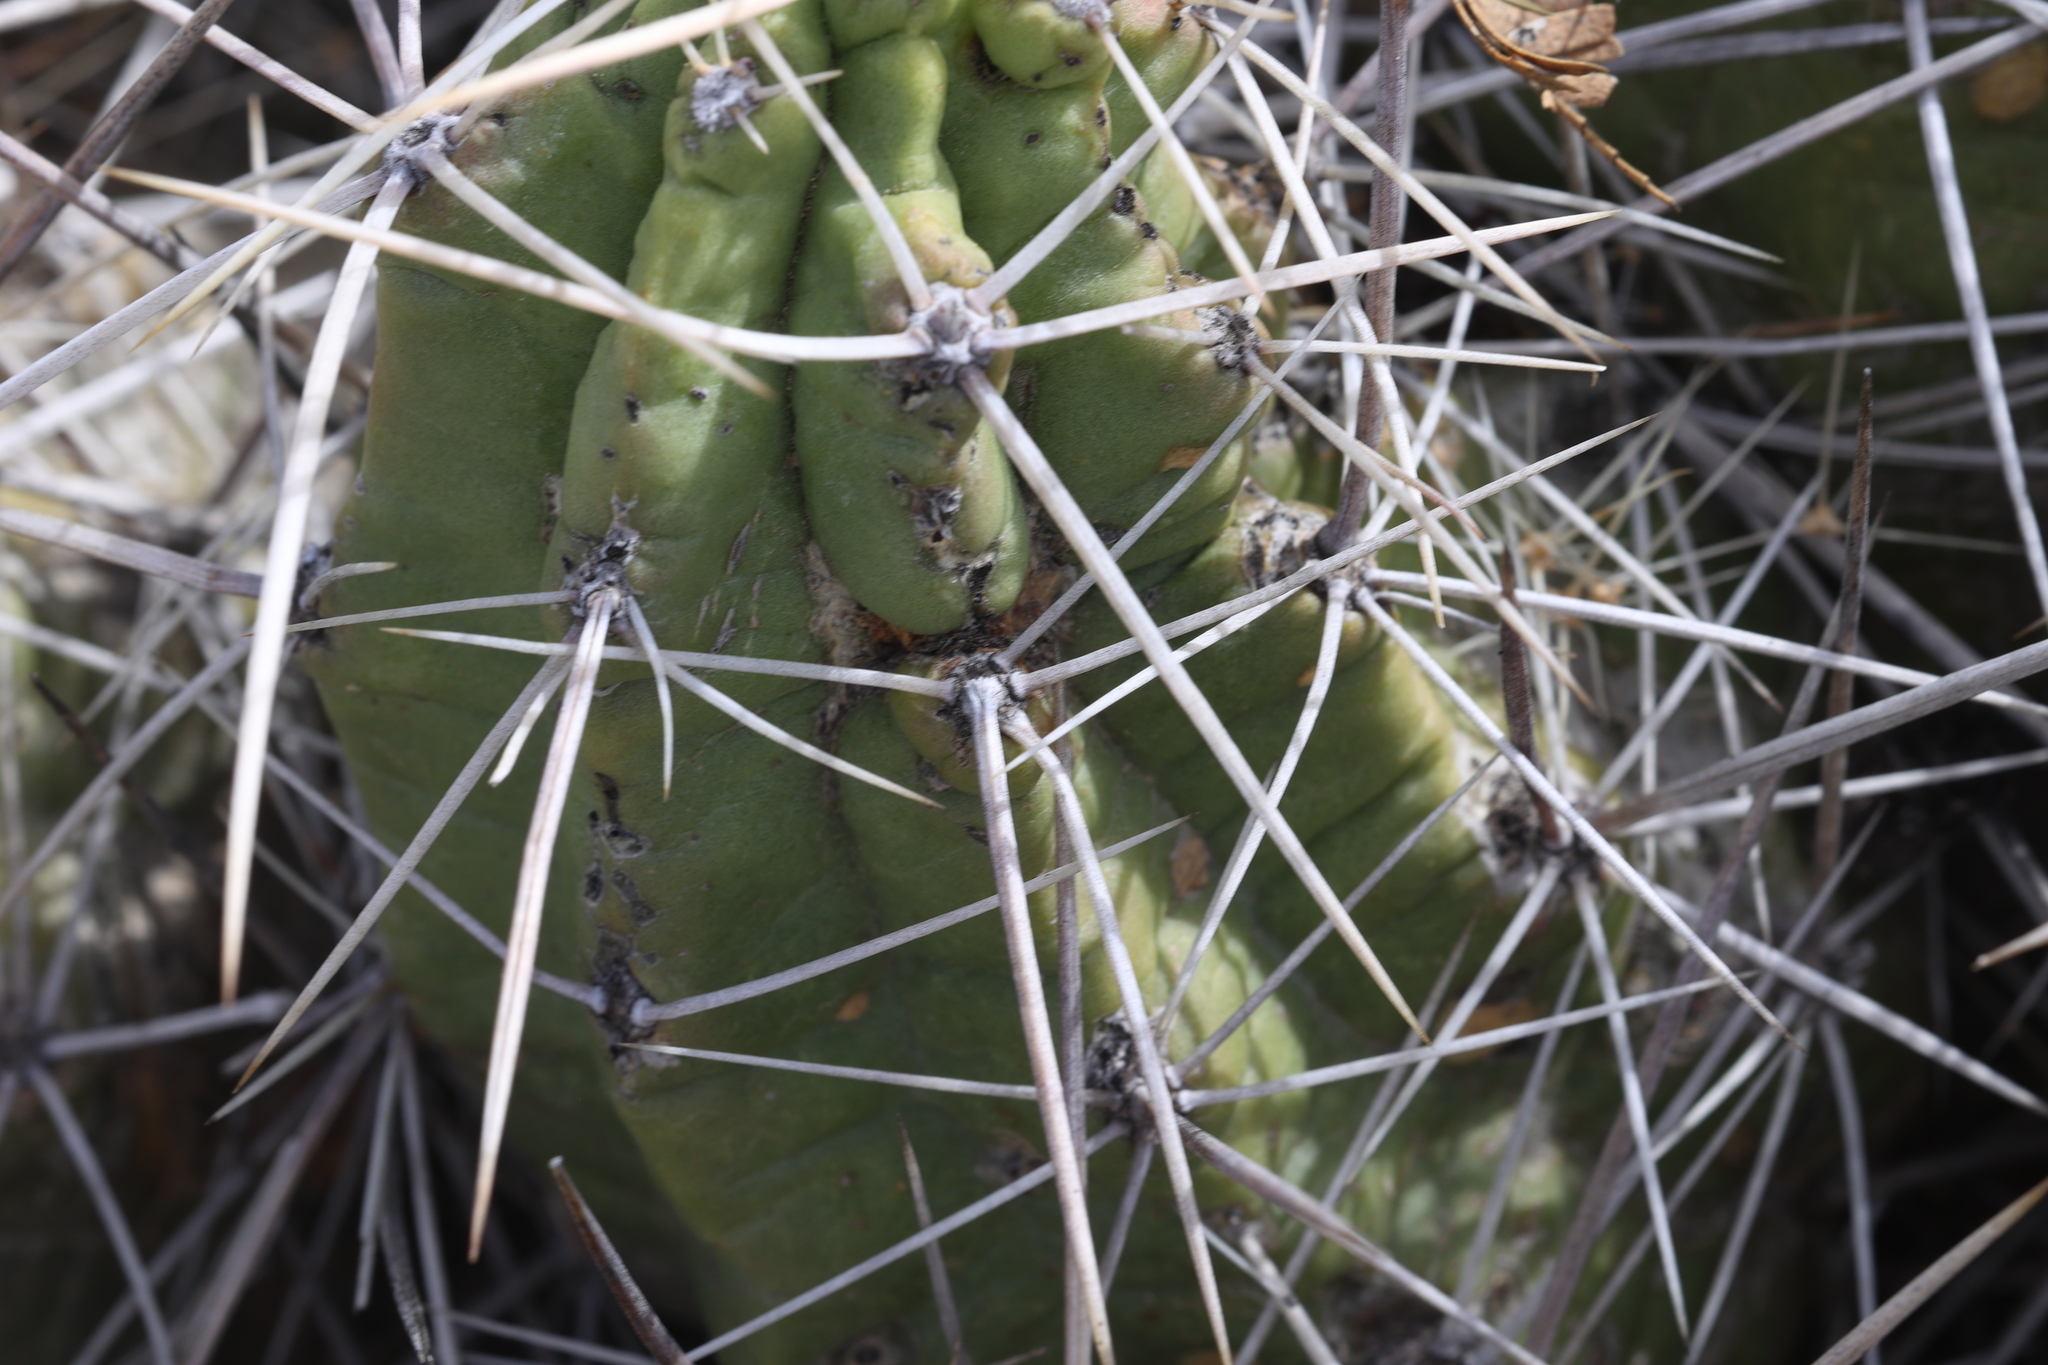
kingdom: Plantae
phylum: Tracheophyta
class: Magnoliopsida
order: Caryophyllales
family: Cactaceae
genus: Echinocereus
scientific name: Echinocereus enneacanthus
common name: Pitaya
